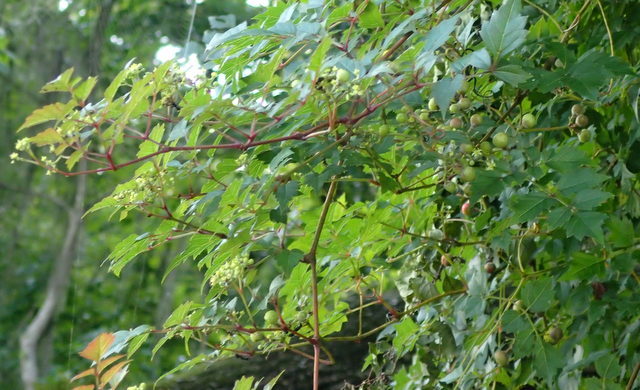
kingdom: Plantae
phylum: Tracheophyta
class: Magnoliopsida
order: Vitales
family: Vitaceae
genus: Nekemias
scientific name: Nekemias arborea
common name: Peppervine
